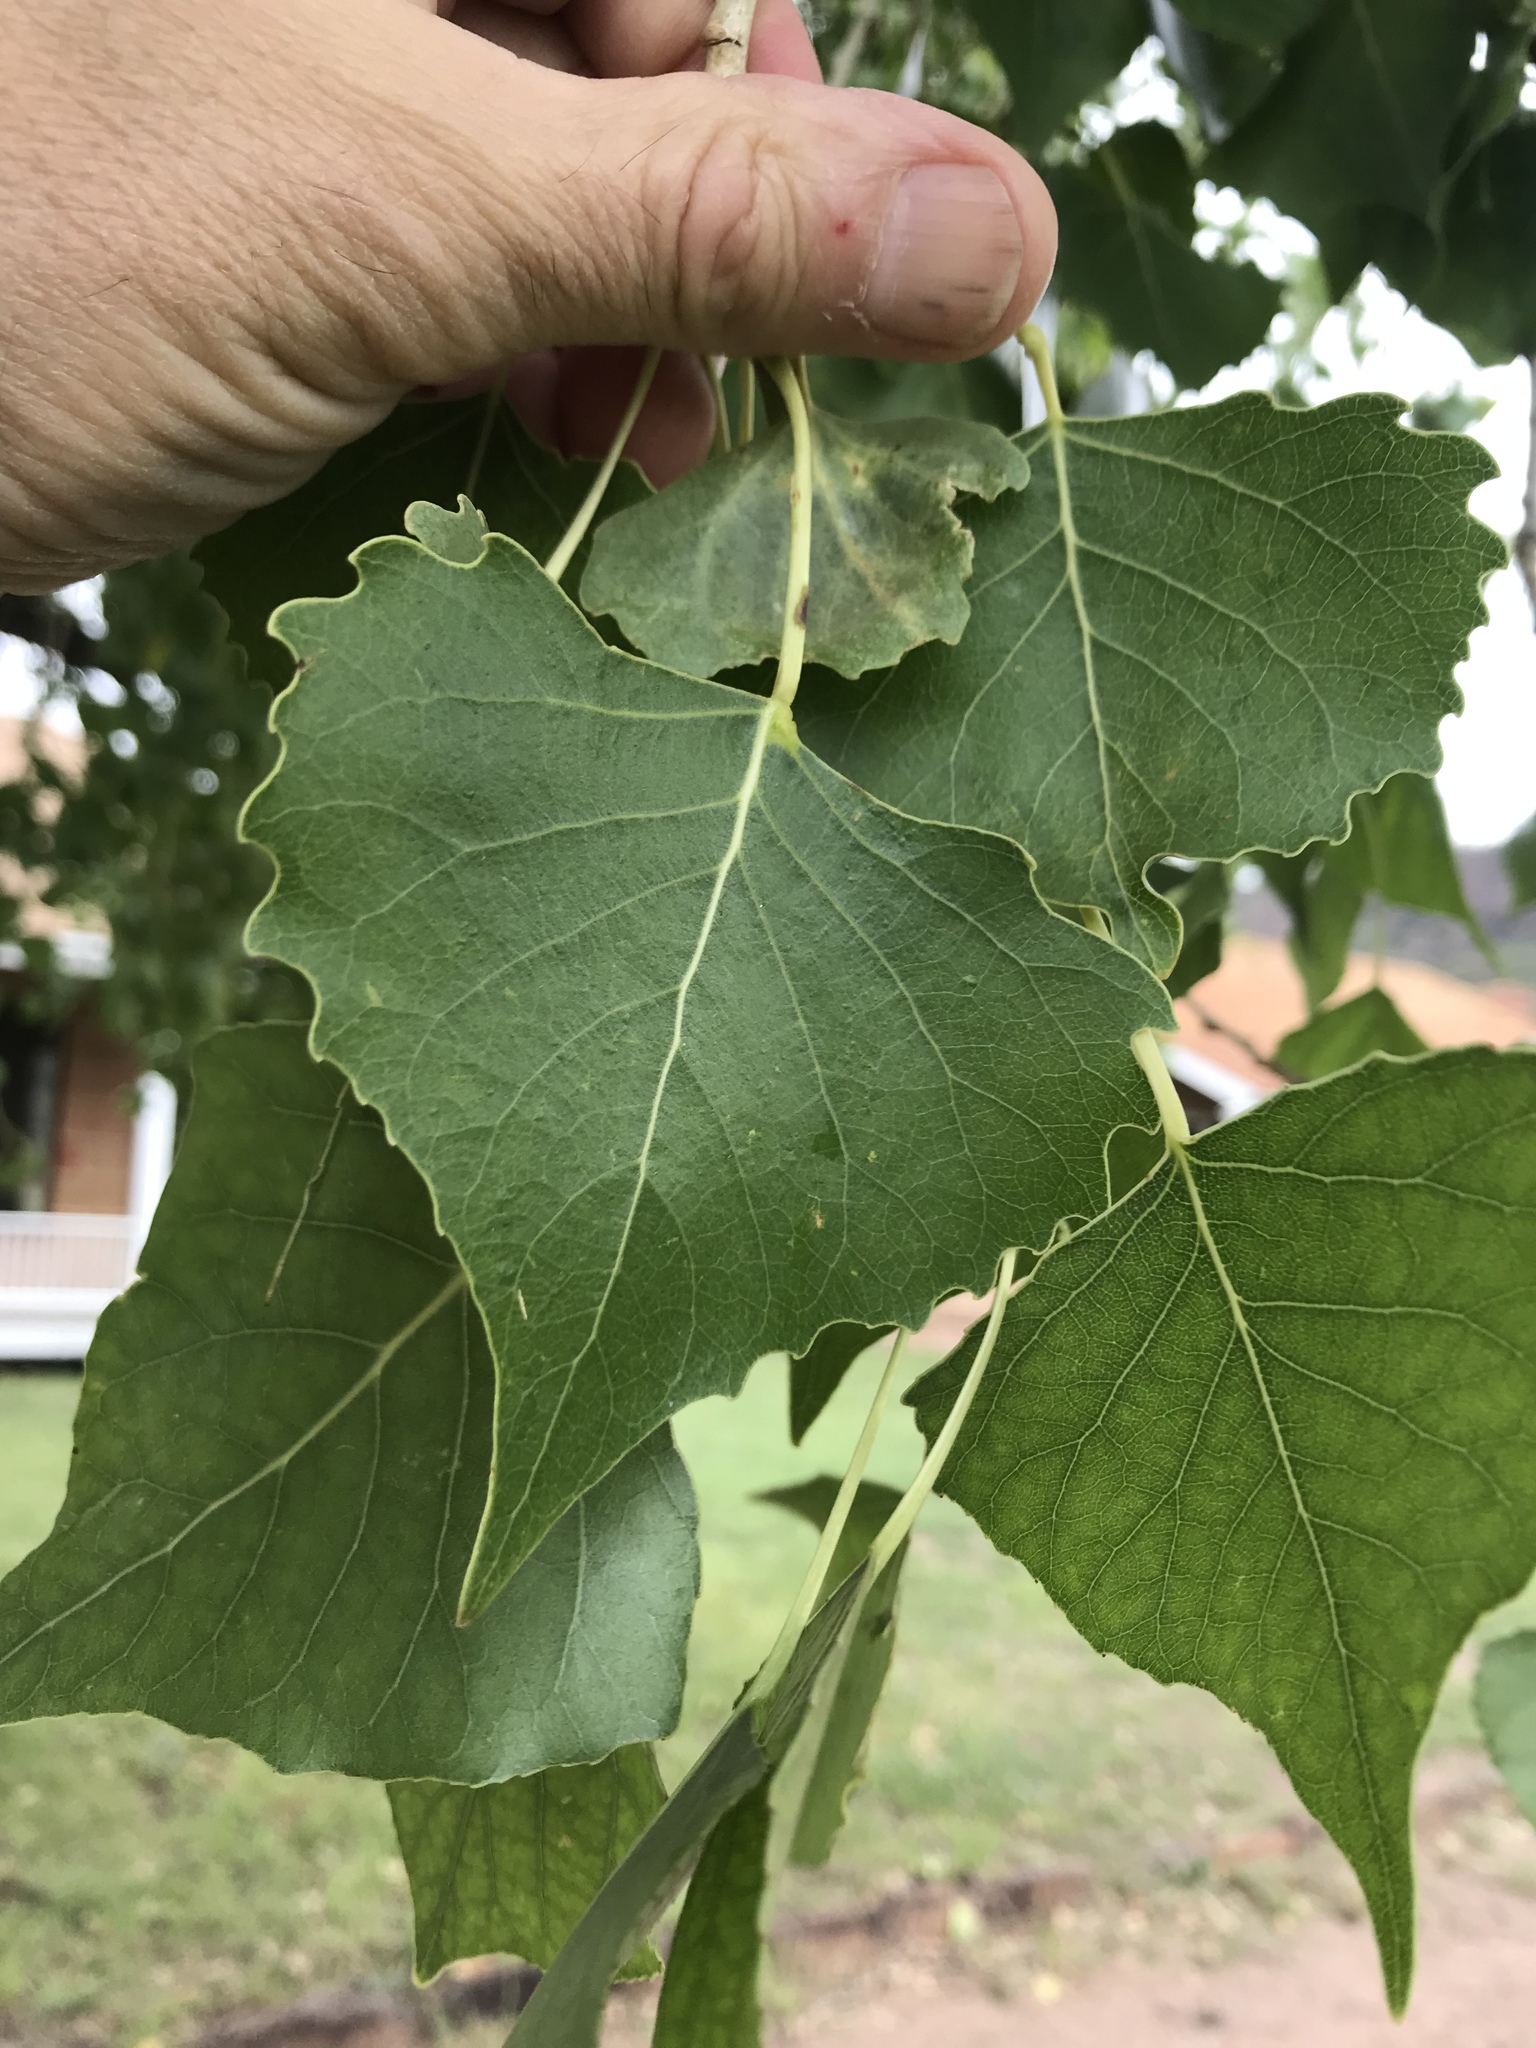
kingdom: Plantae
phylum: Tracheophyta
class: Magnoliopsida
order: Malpighiales
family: Salicaceae
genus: Populus
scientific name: Populus deltoides
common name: Eastern cottonwood
